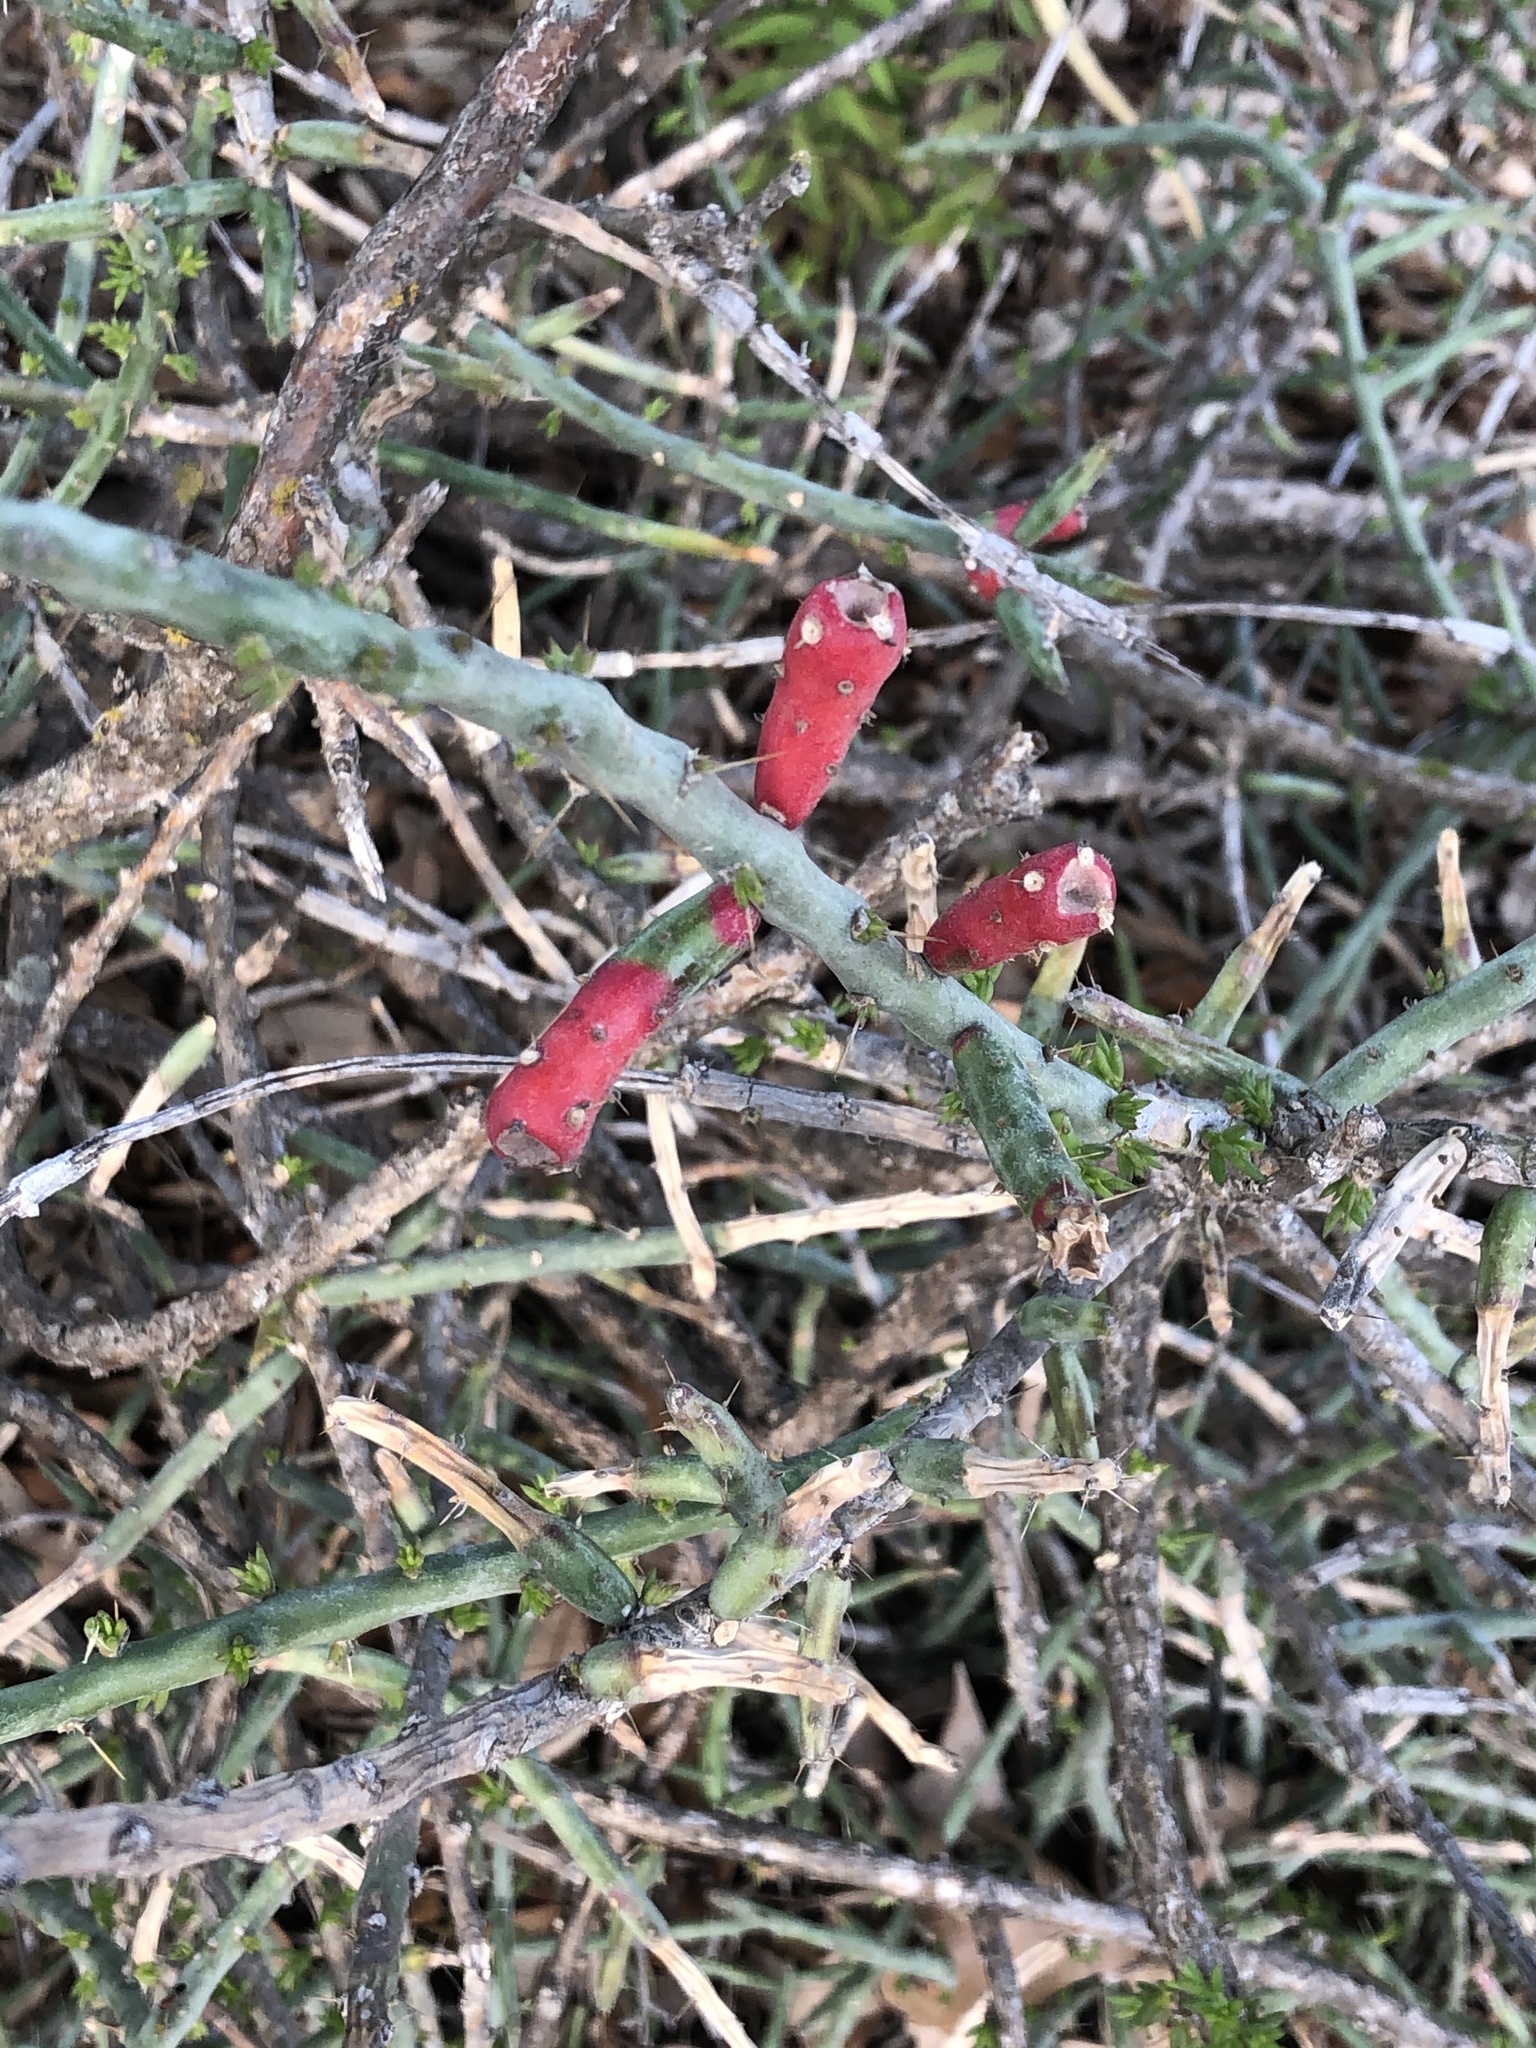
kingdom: Plantae
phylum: Tracheophyta
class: Magnoliopsida
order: Caryophyllales
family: Cactaceae
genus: Cylindropuntia
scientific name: Cylindropuntia leptocaulis
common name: Christmas cactus
